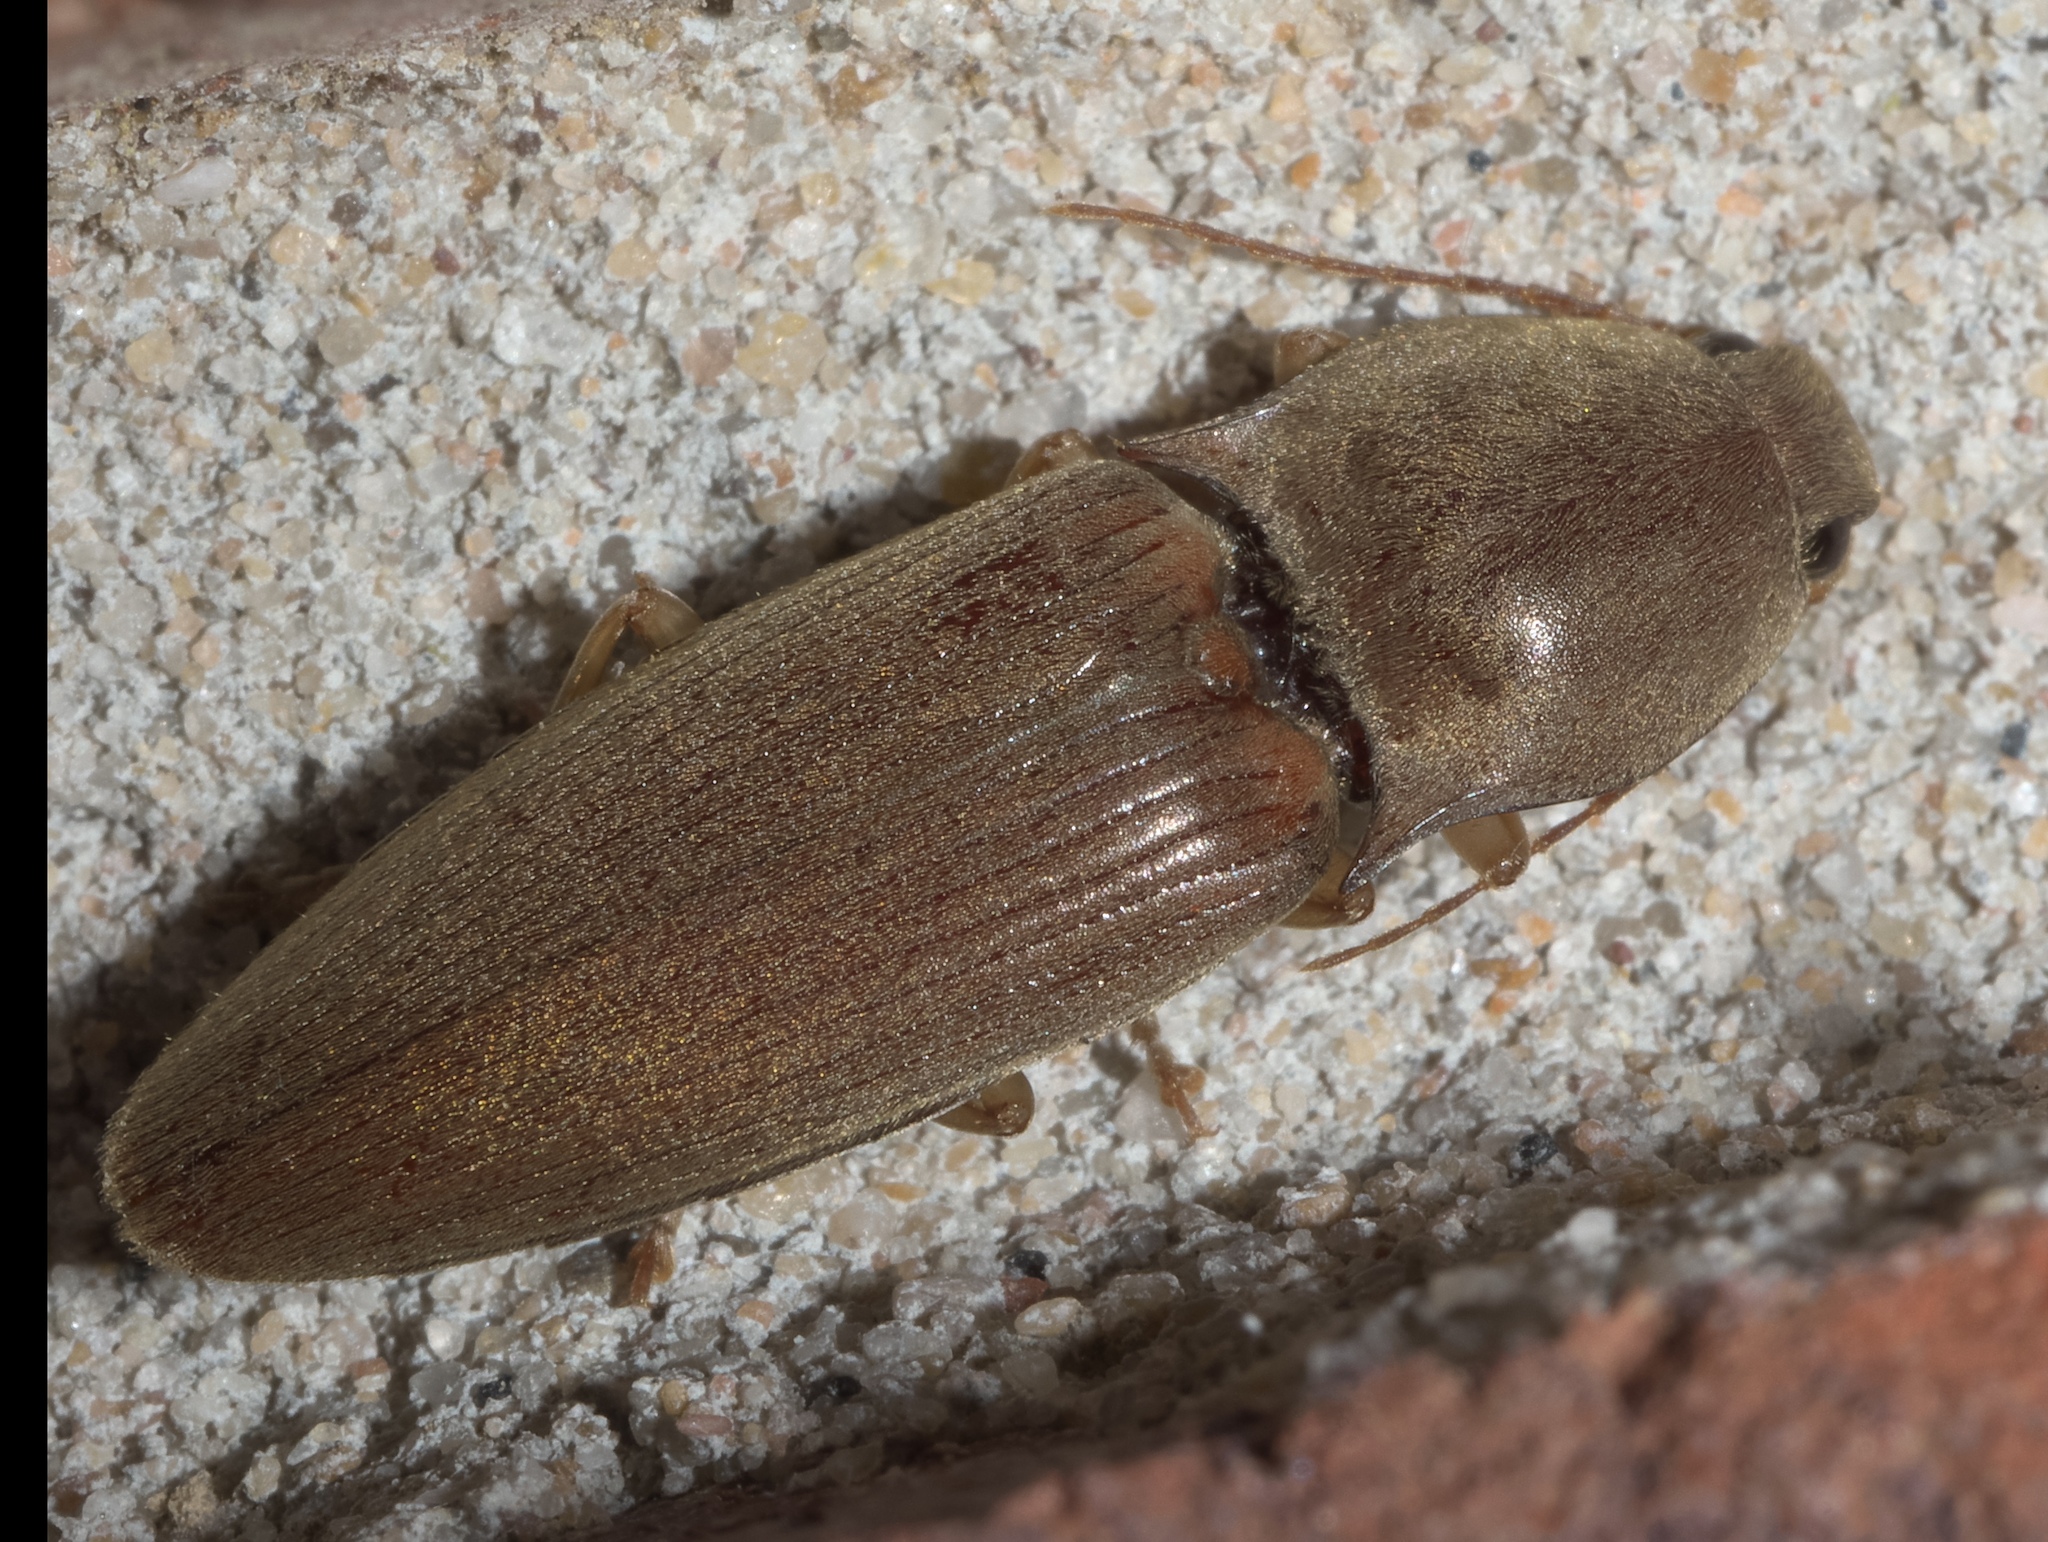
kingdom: Animalia
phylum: Arthropoda
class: Insecta
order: Coleoptera
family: Elateridae
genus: Monocrepidius
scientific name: Monocrepidius lividus
